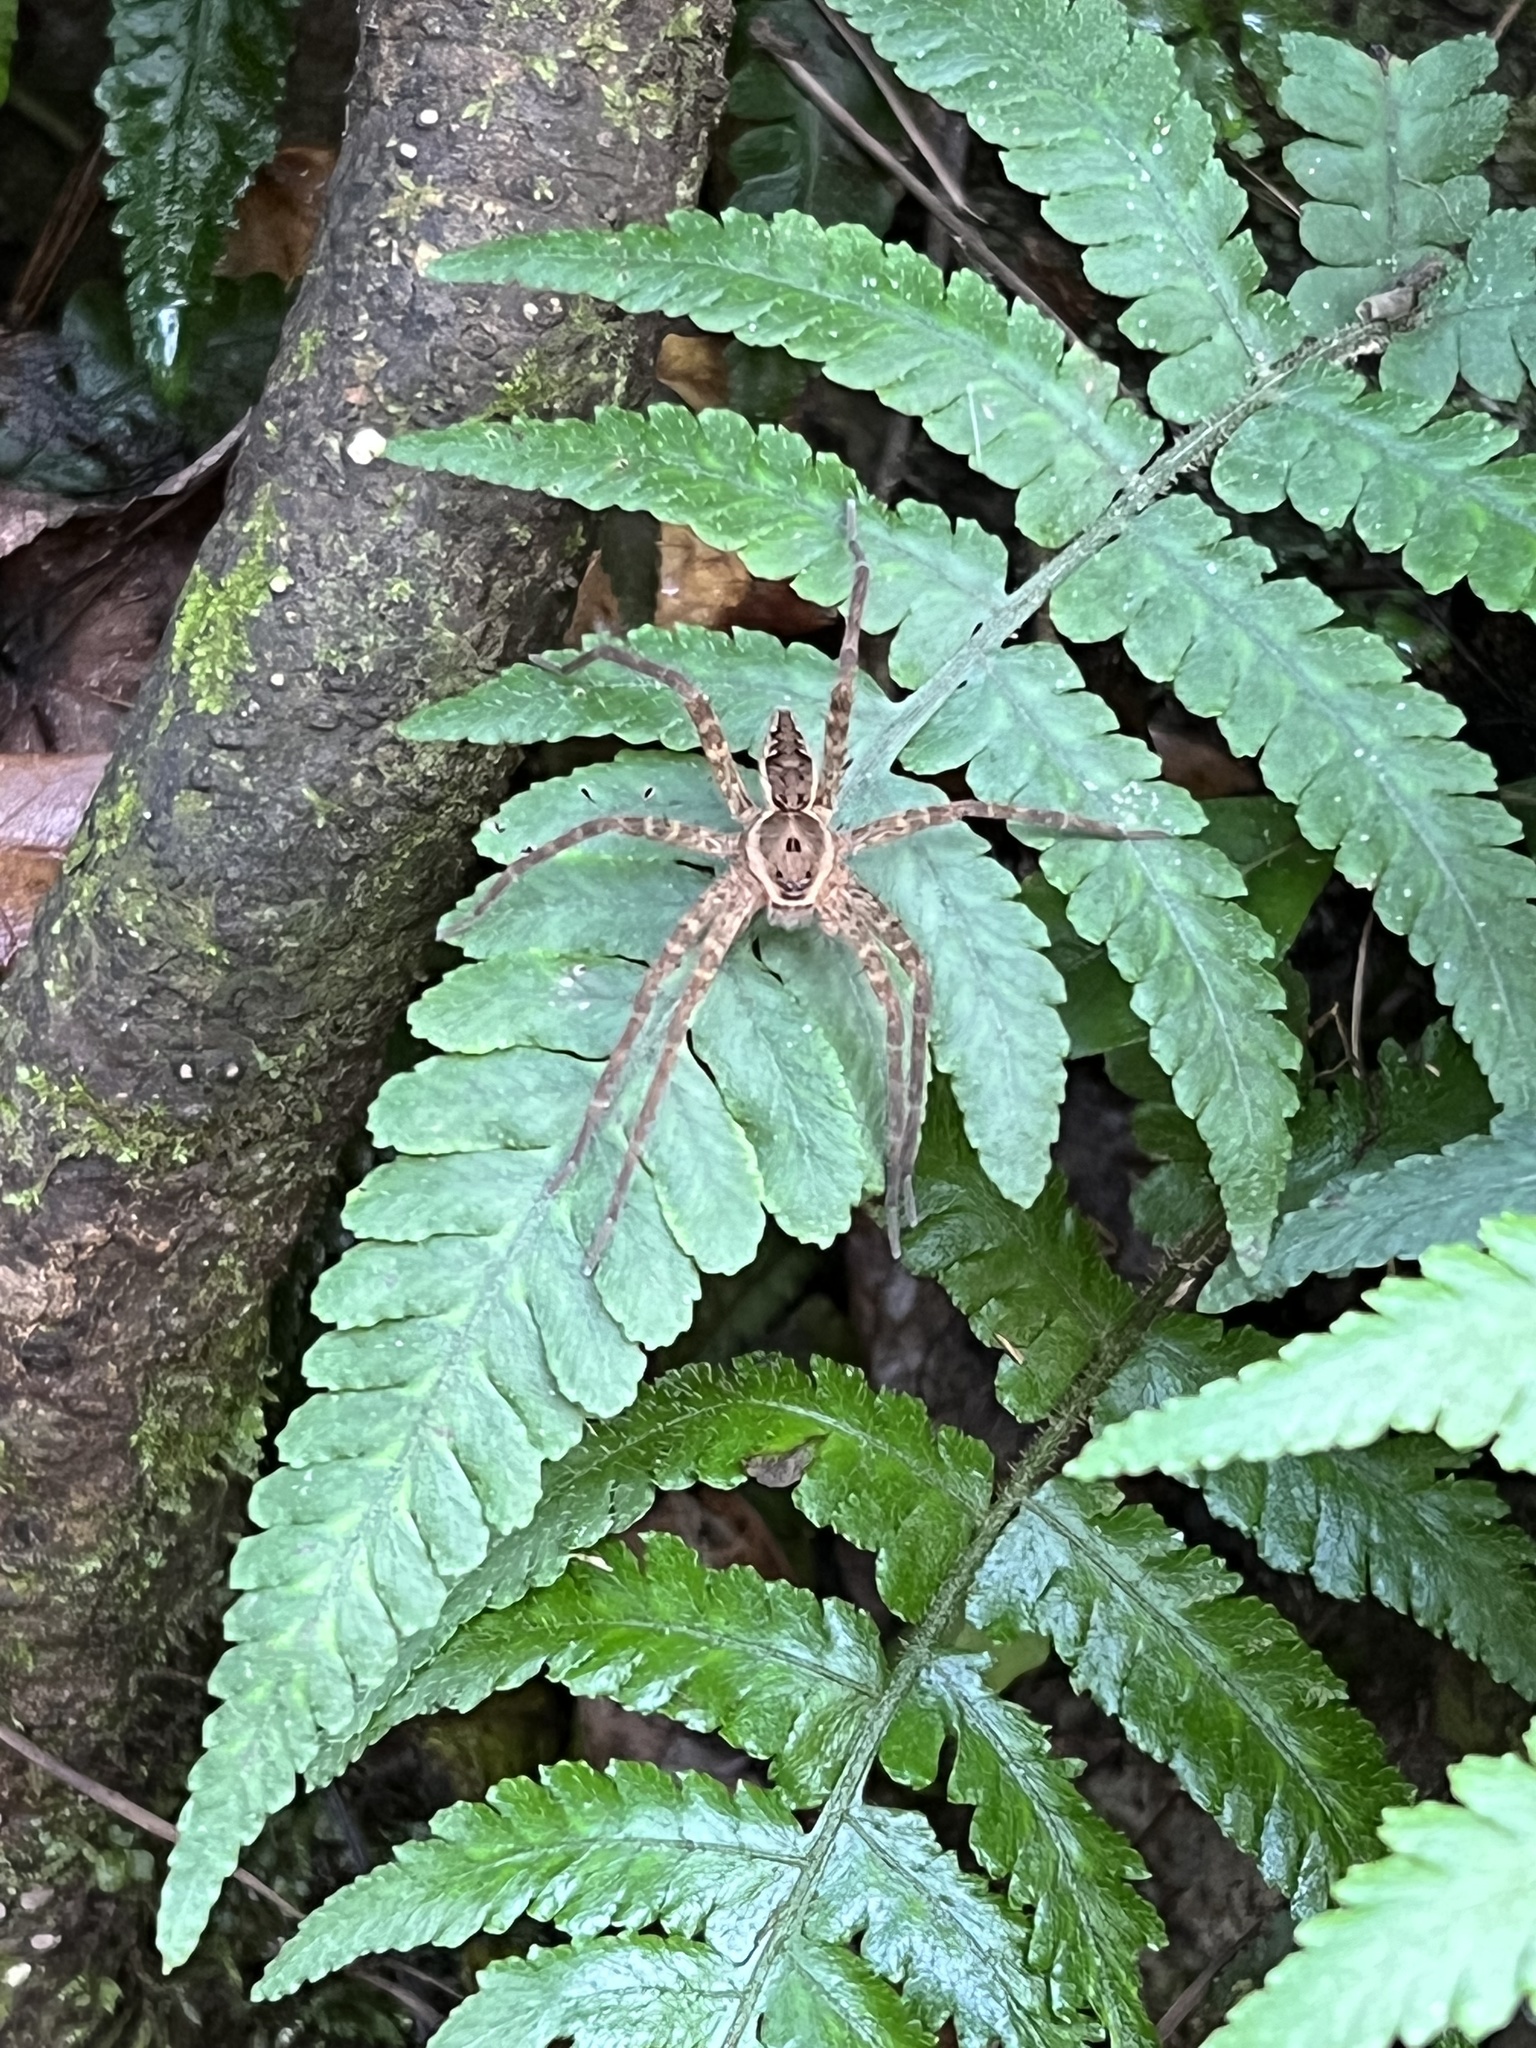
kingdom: Animalia
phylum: Arthropoda
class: Arachnida
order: Araneae
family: Pisauridae
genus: Dolomedes
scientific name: Dolomedes vittatus
